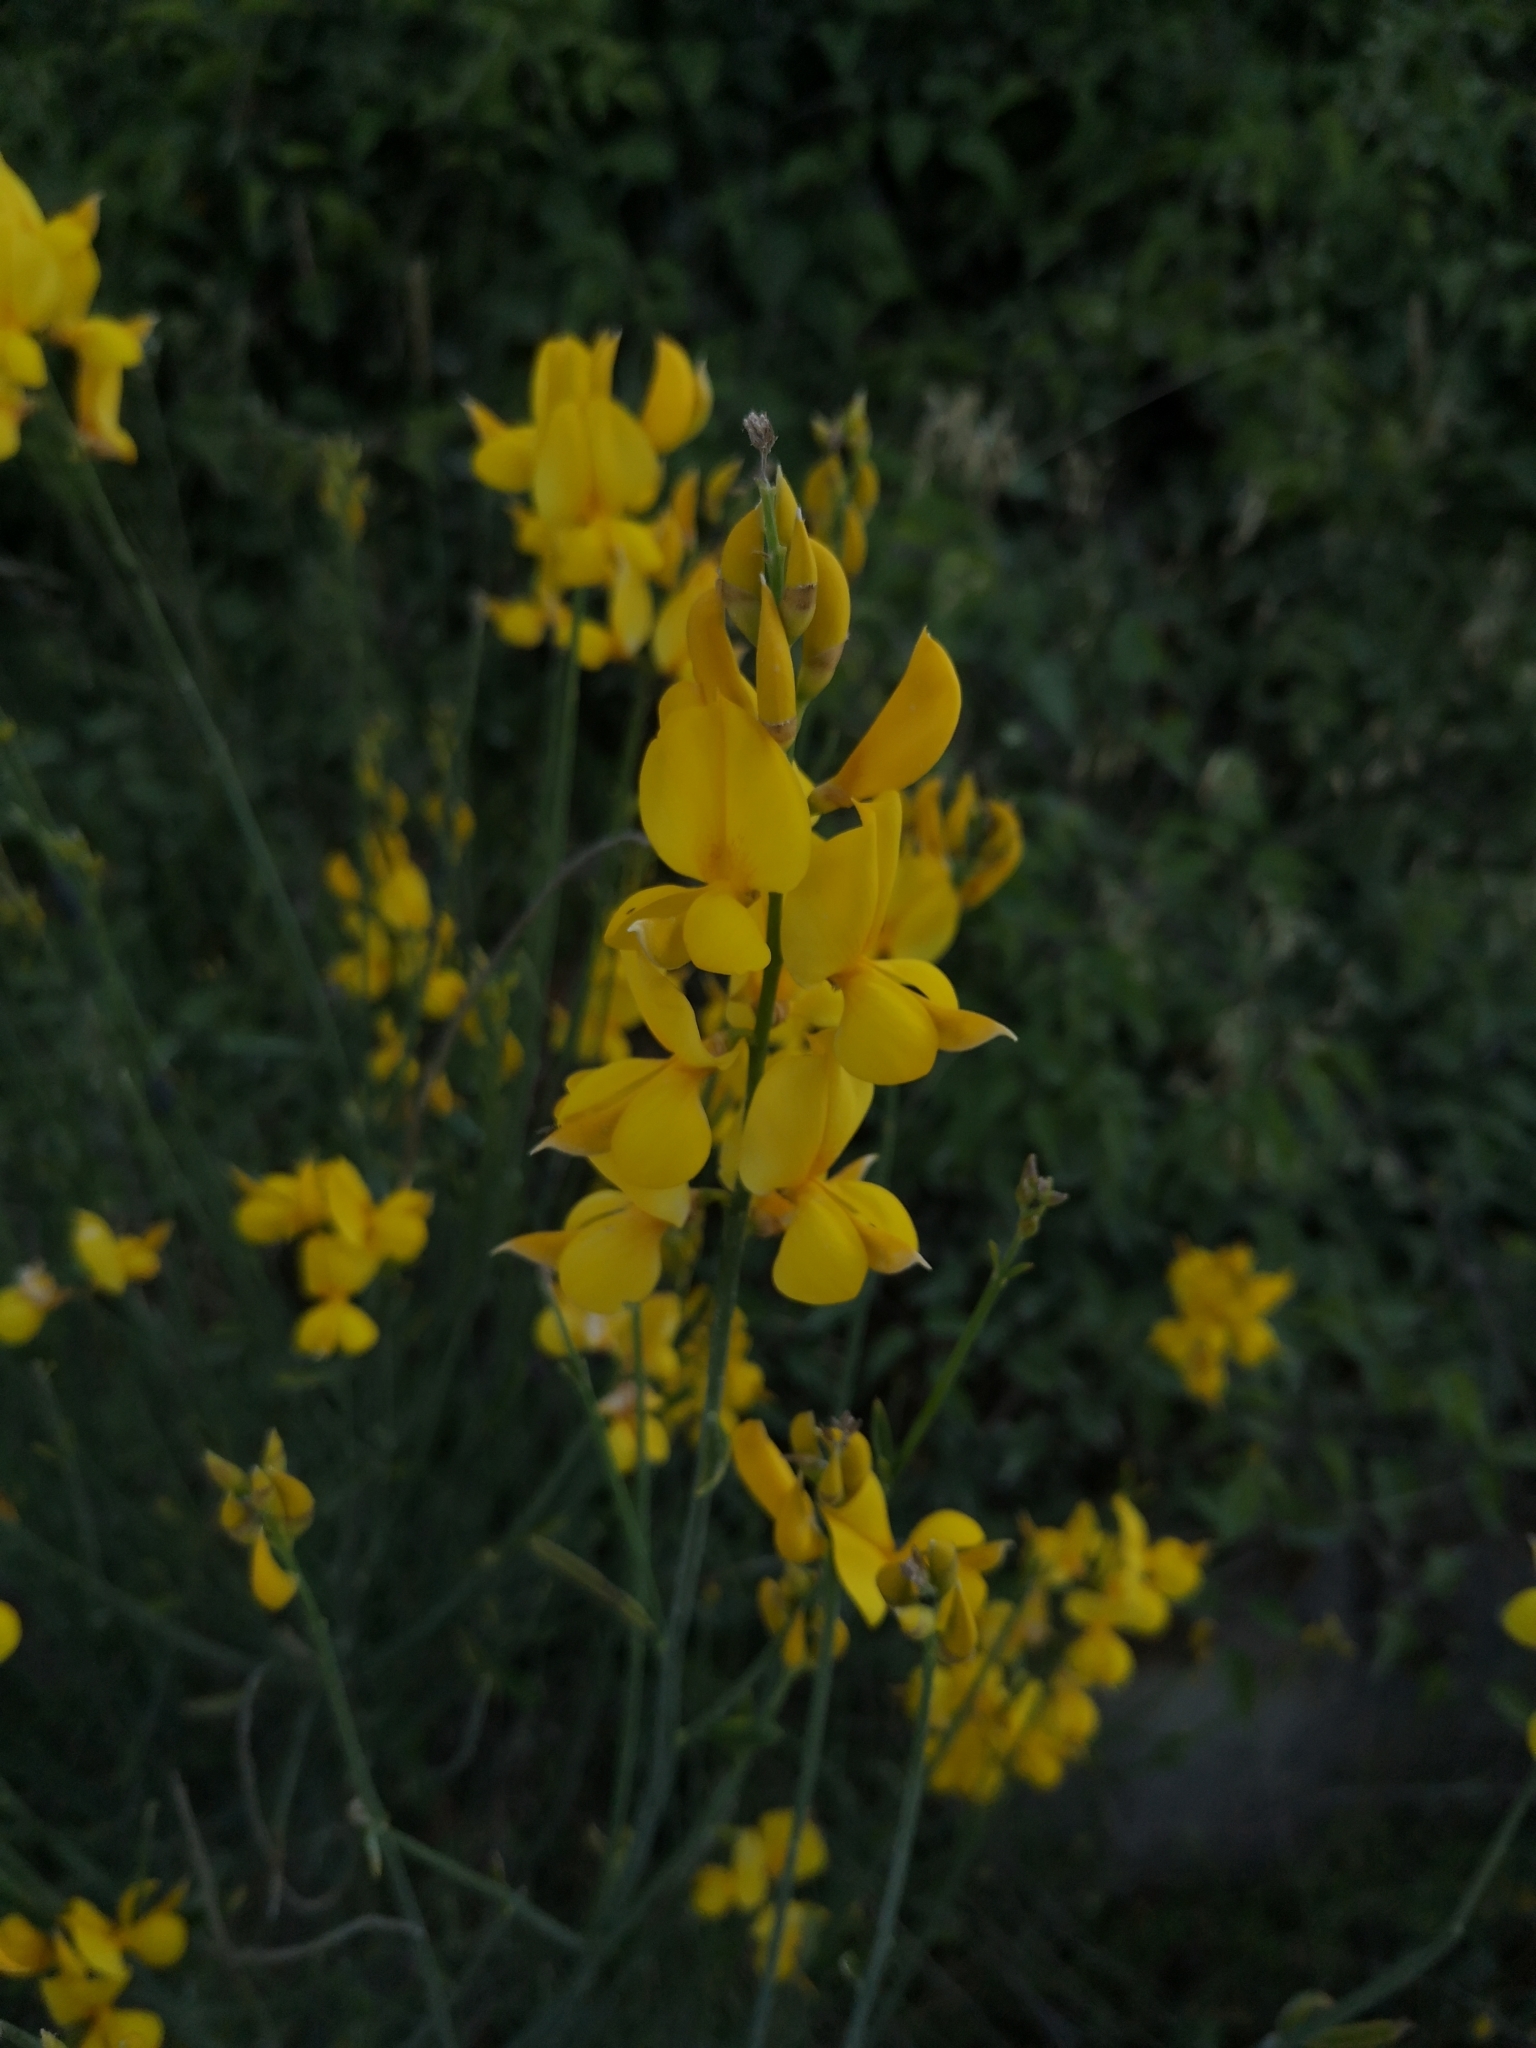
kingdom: Plantae
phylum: Tracheophyta
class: Magnoliopsida
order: Fabales
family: Fabaceae
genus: Spartium
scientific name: Spartium junceum
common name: Spanish broom
